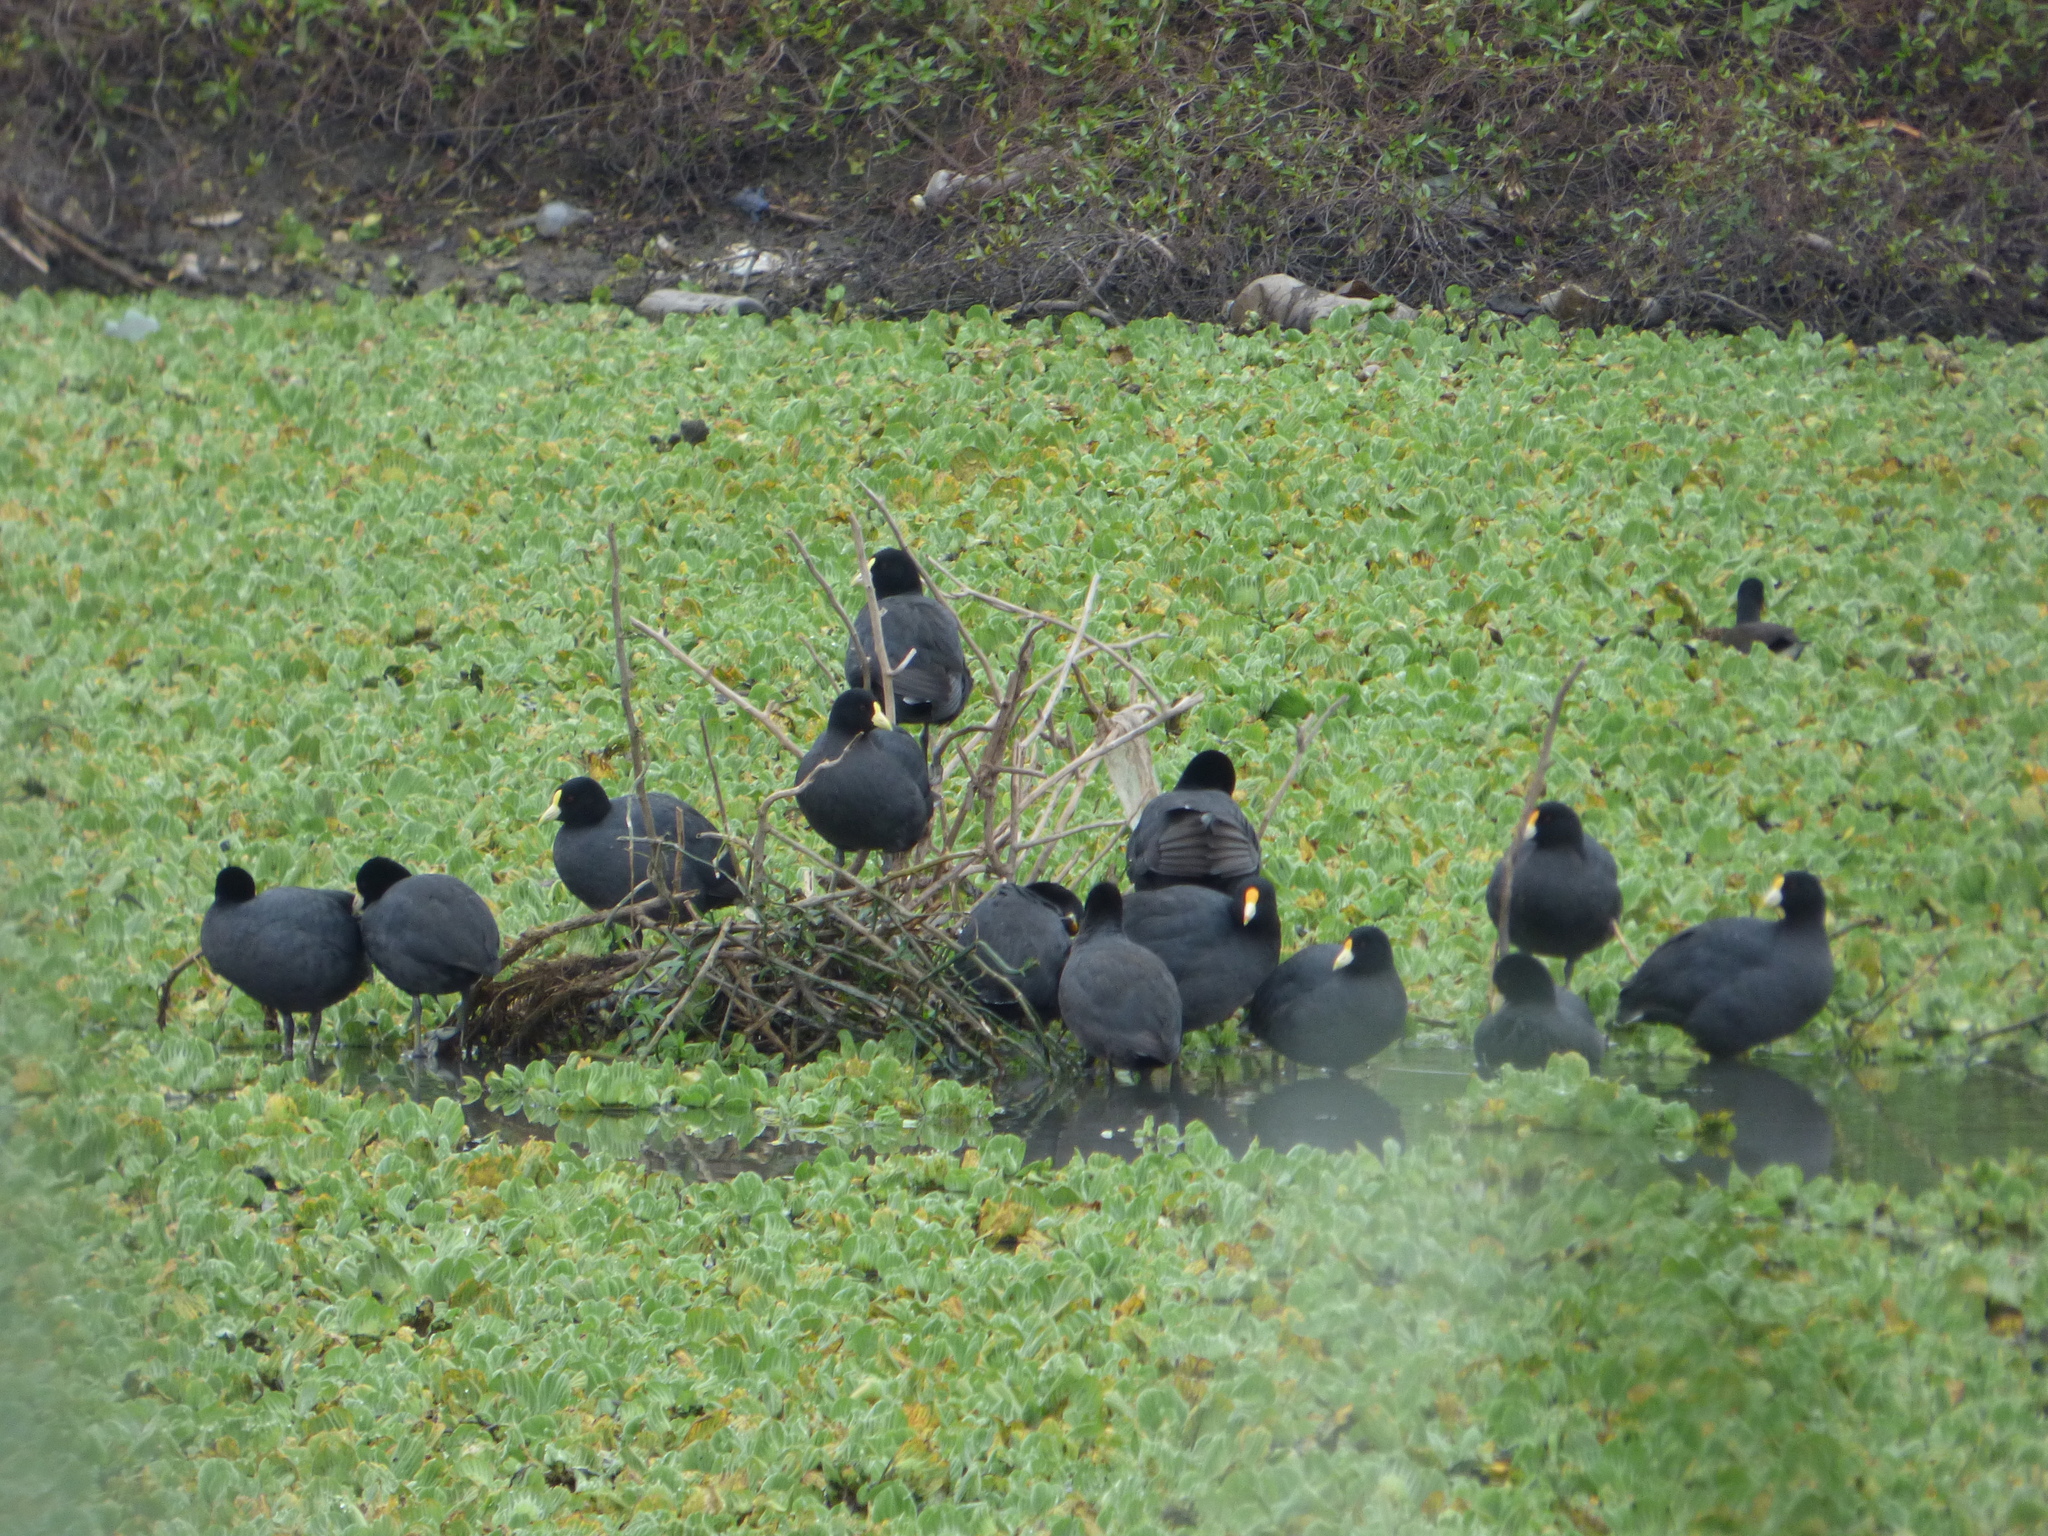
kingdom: Animalia
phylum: Chordata
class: Aves
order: Gruiformes
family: Rallidae
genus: Fulica
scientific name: Fulica leucoptera
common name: White-winged coot
